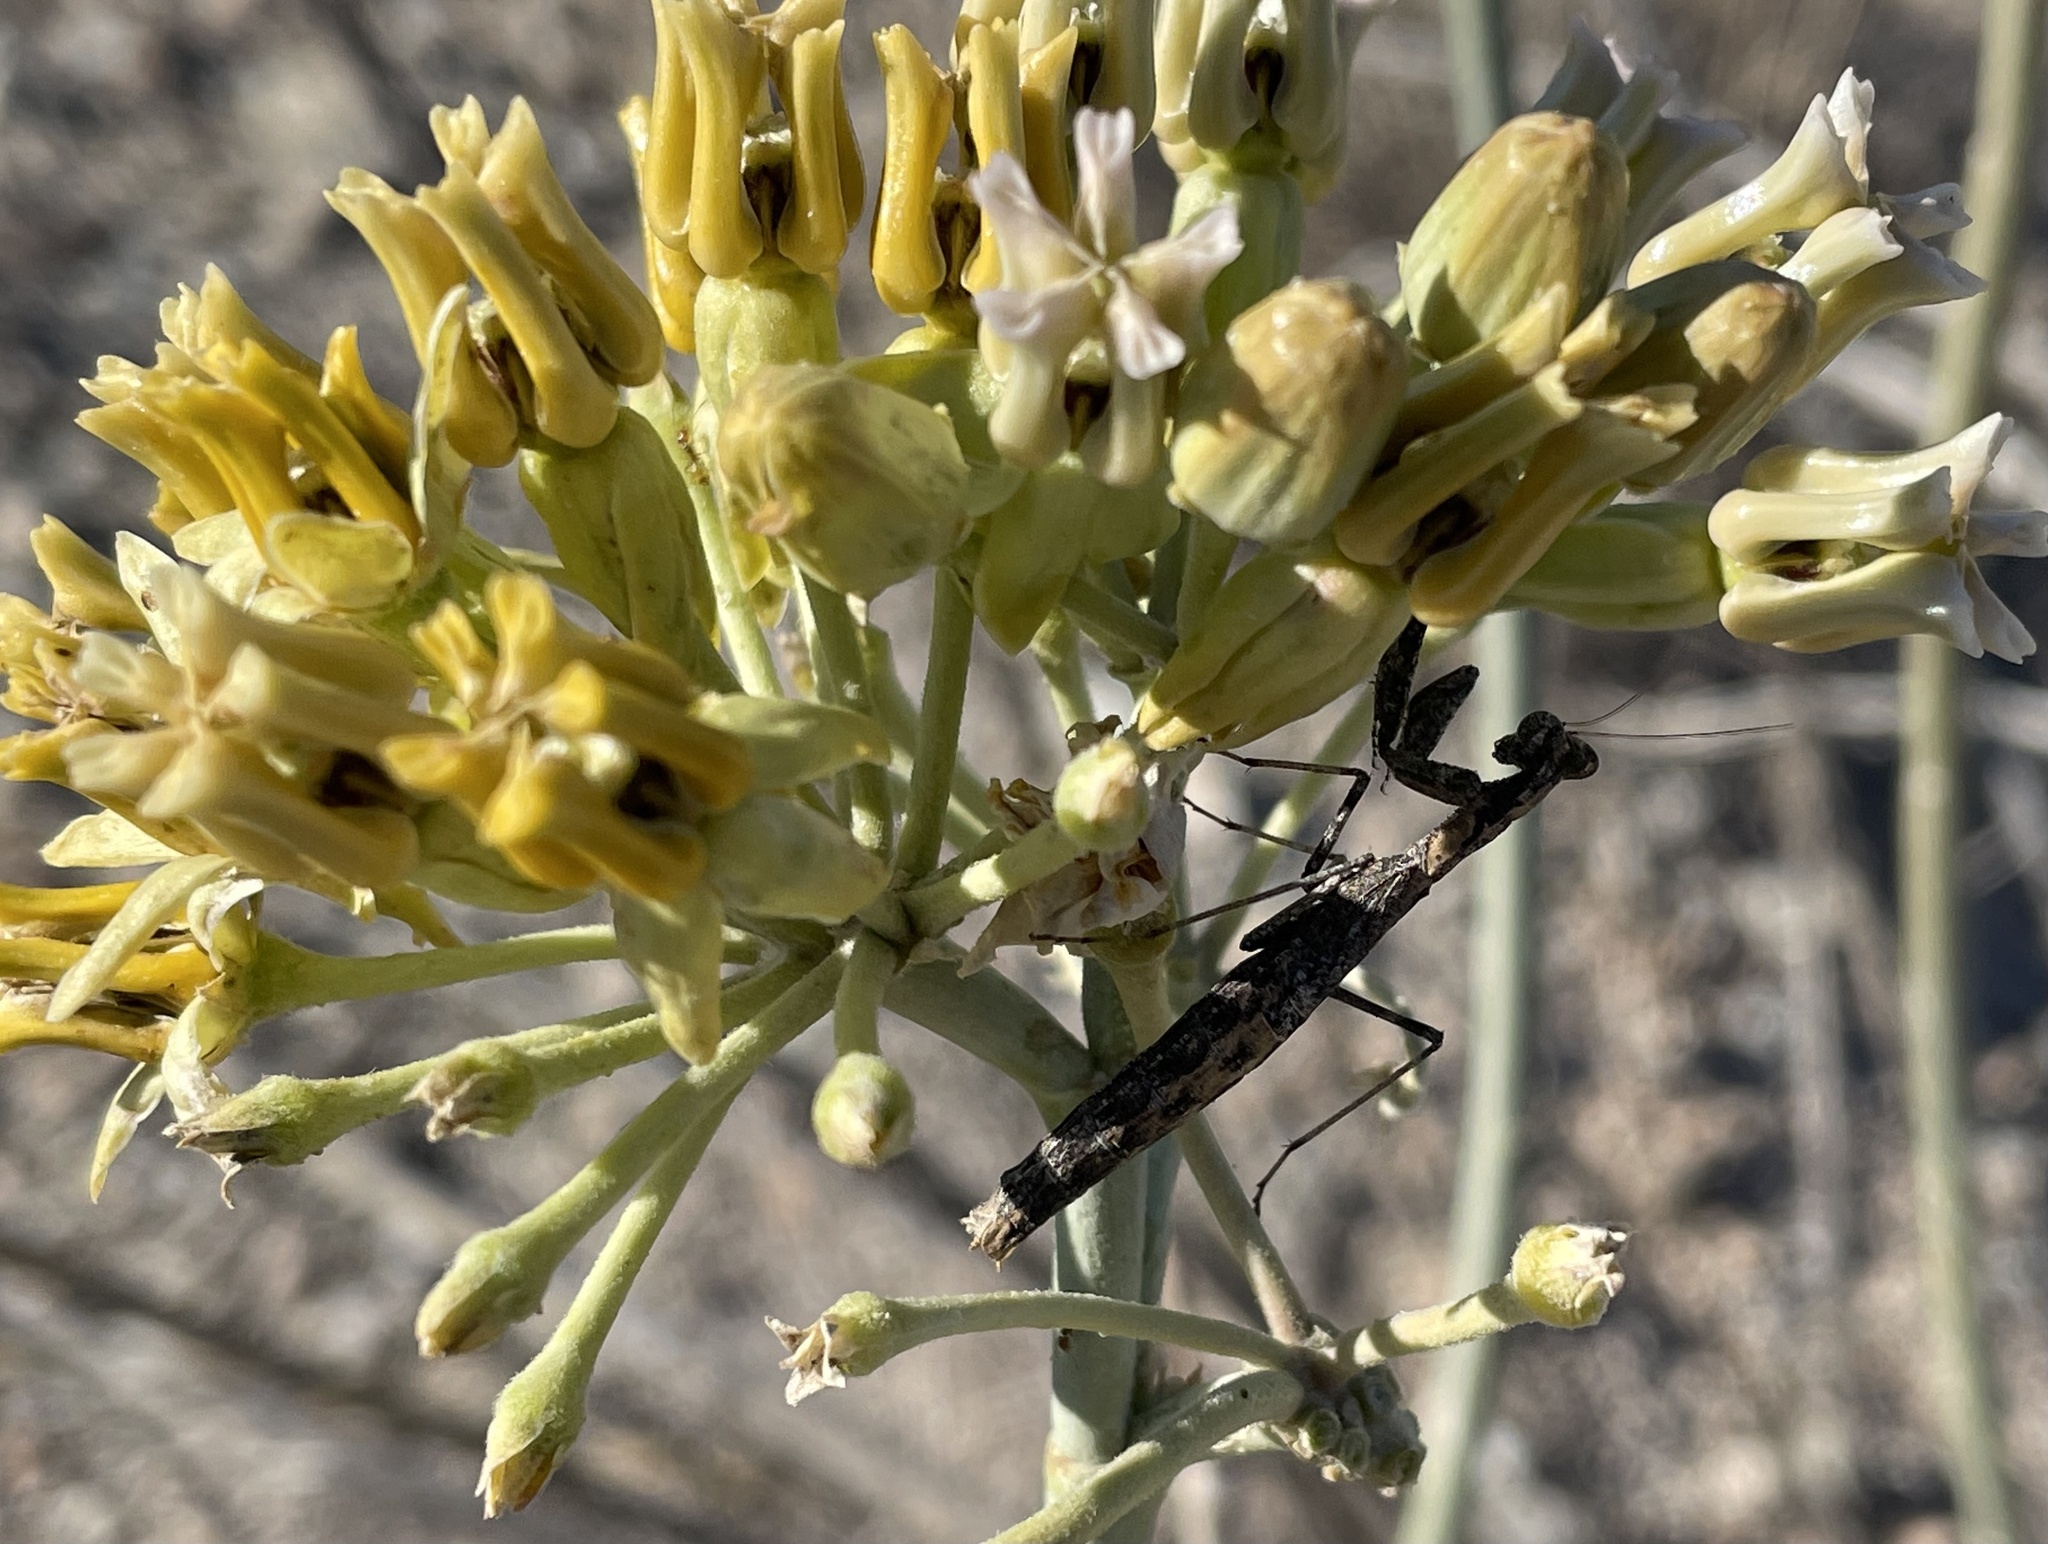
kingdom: Animalia
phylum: Arthropoda
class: Insecta
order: Mantodea
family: Amelidae
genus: Litaneutria
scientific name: Litaneutria ocularis
